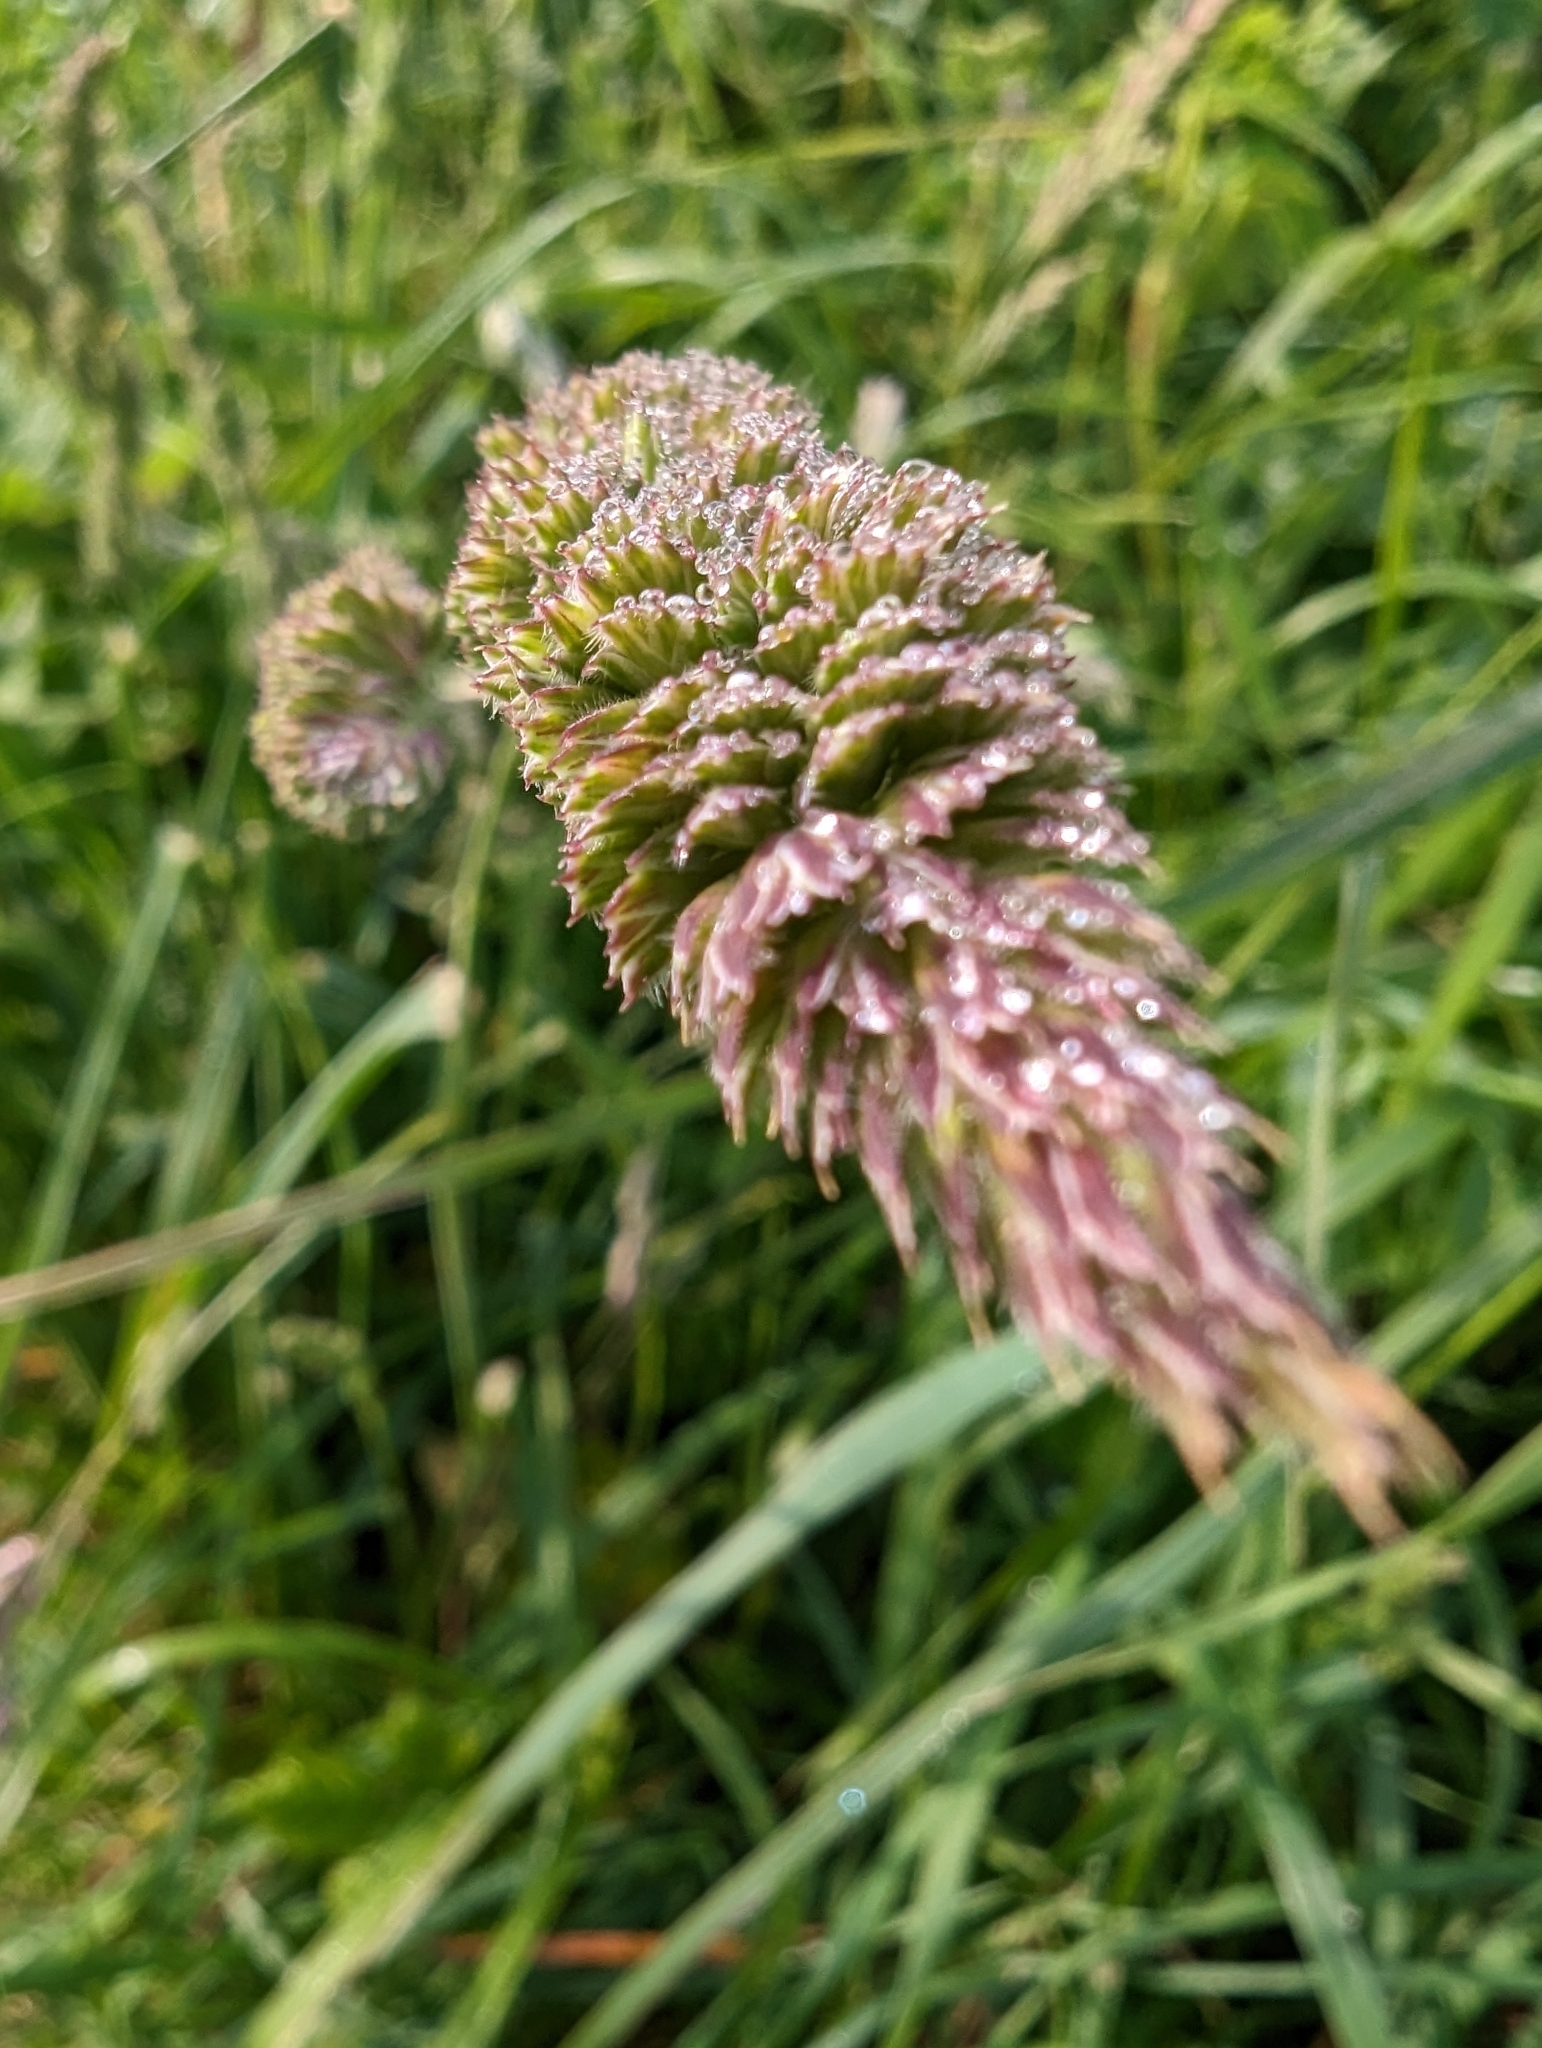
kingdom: Plantae
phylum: Tracheophyta
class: Liliopsida
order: Poales
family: Poaceae
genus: Dactylis
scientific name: Dactylis glomerata
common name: Orchardgrass
